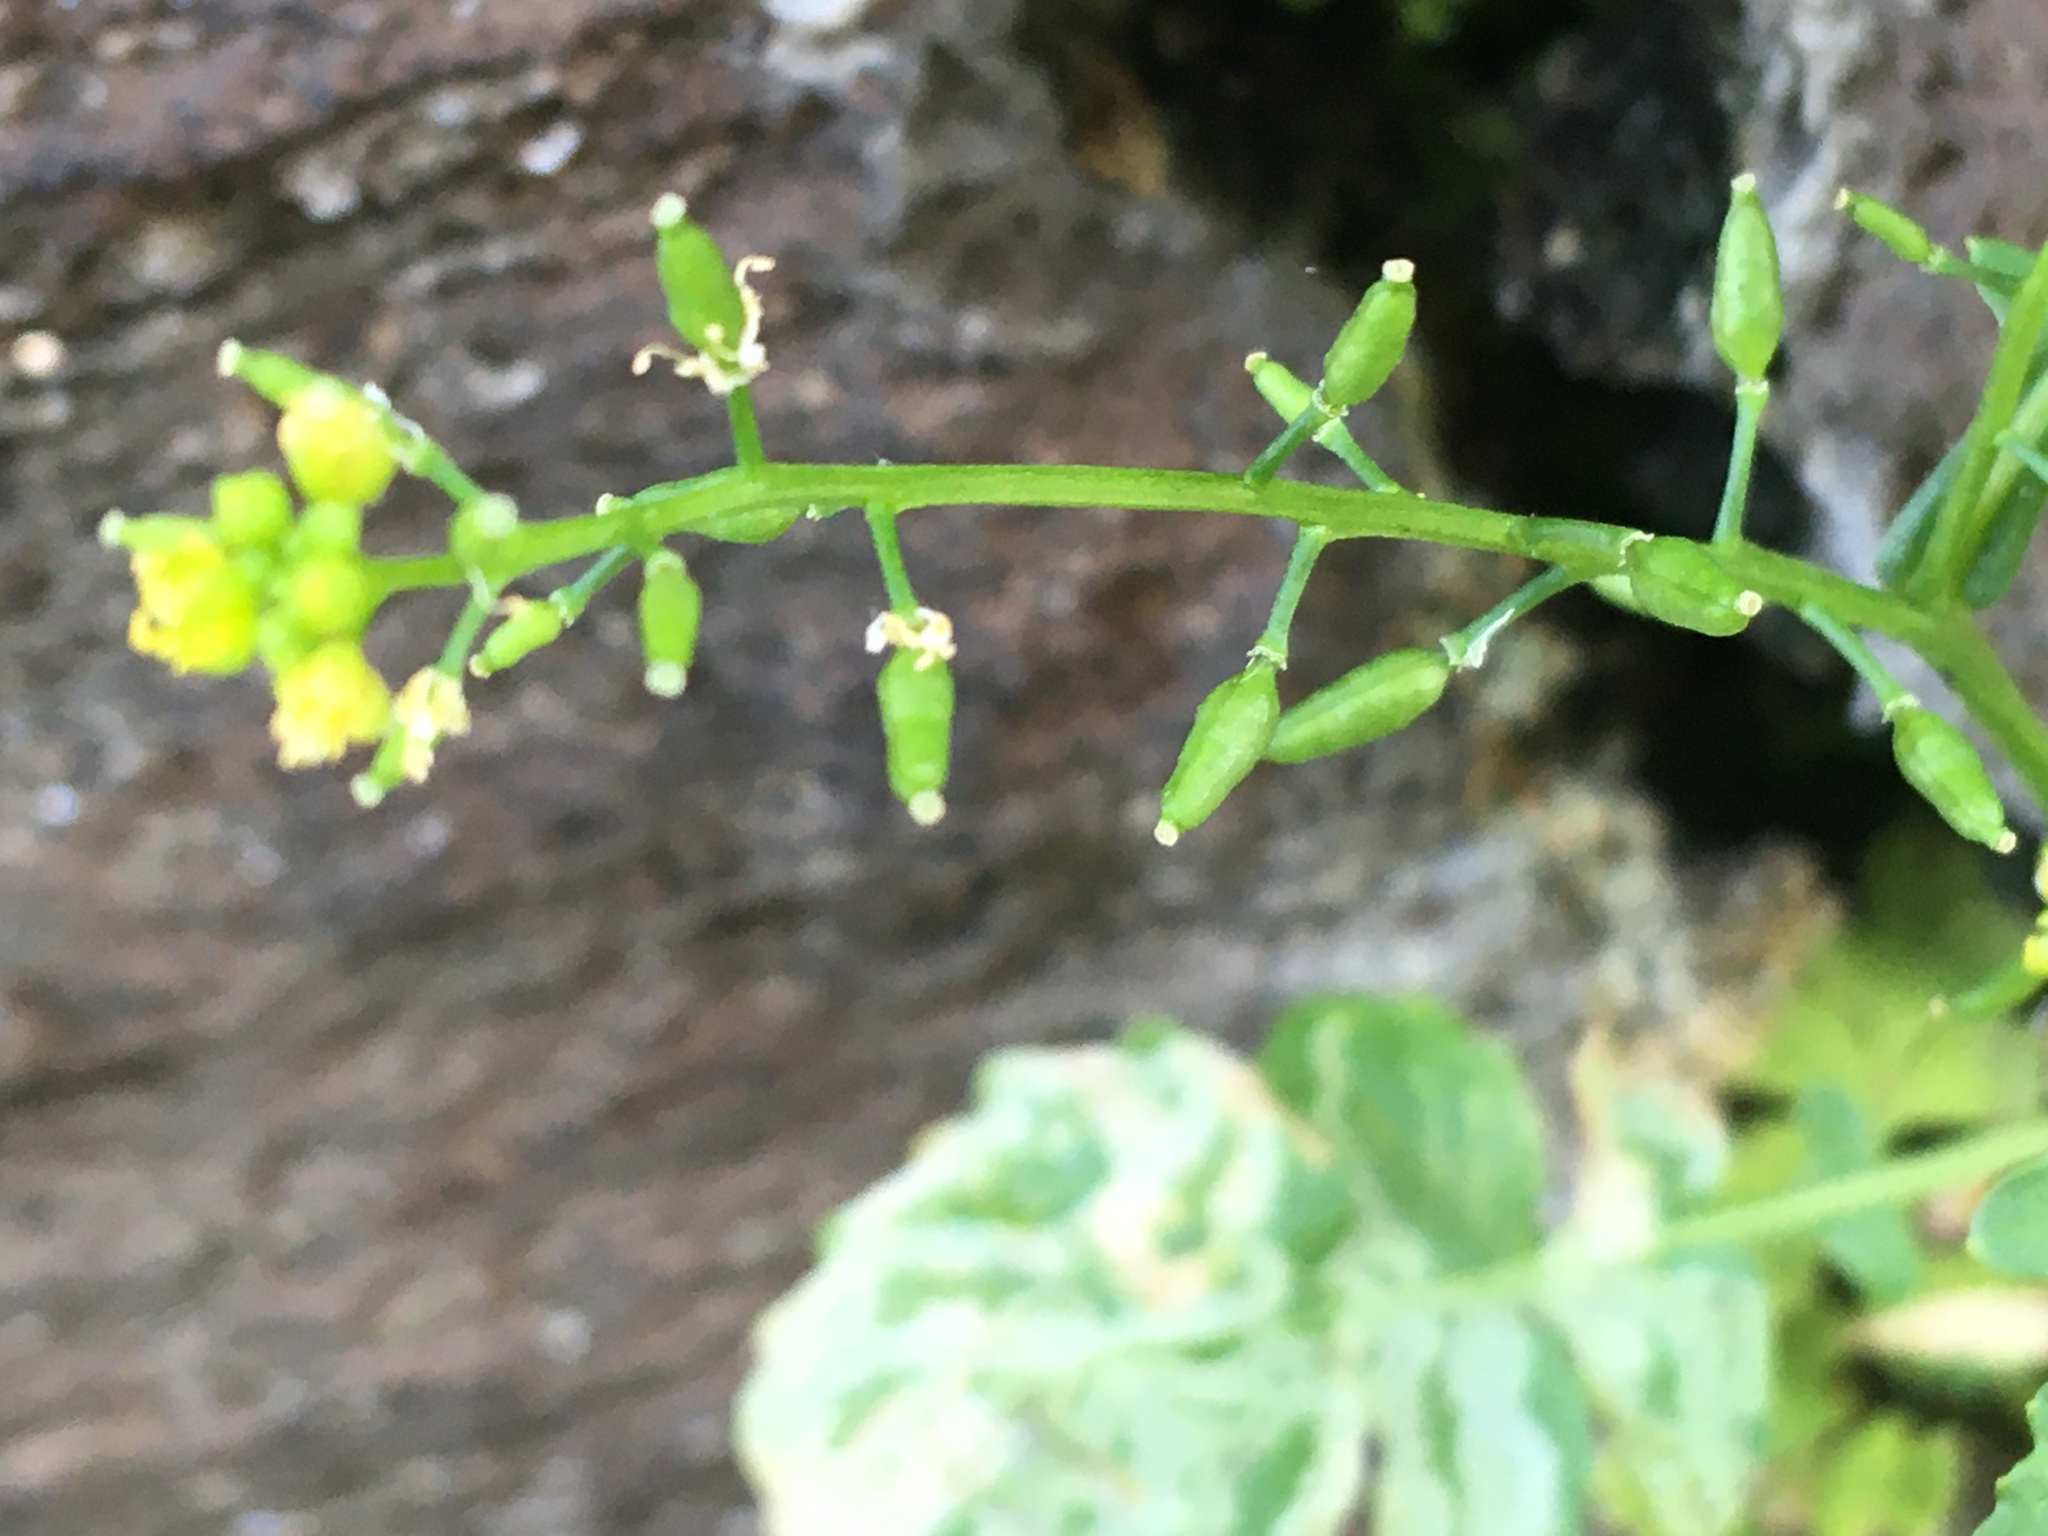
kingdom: Plantae
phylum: Tracheophyta
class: Magnoliopsida
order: Brassicales
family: Brassicaceae
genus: Rorippa
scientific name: Rorippa palustris
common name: Marsh yellow-cress
